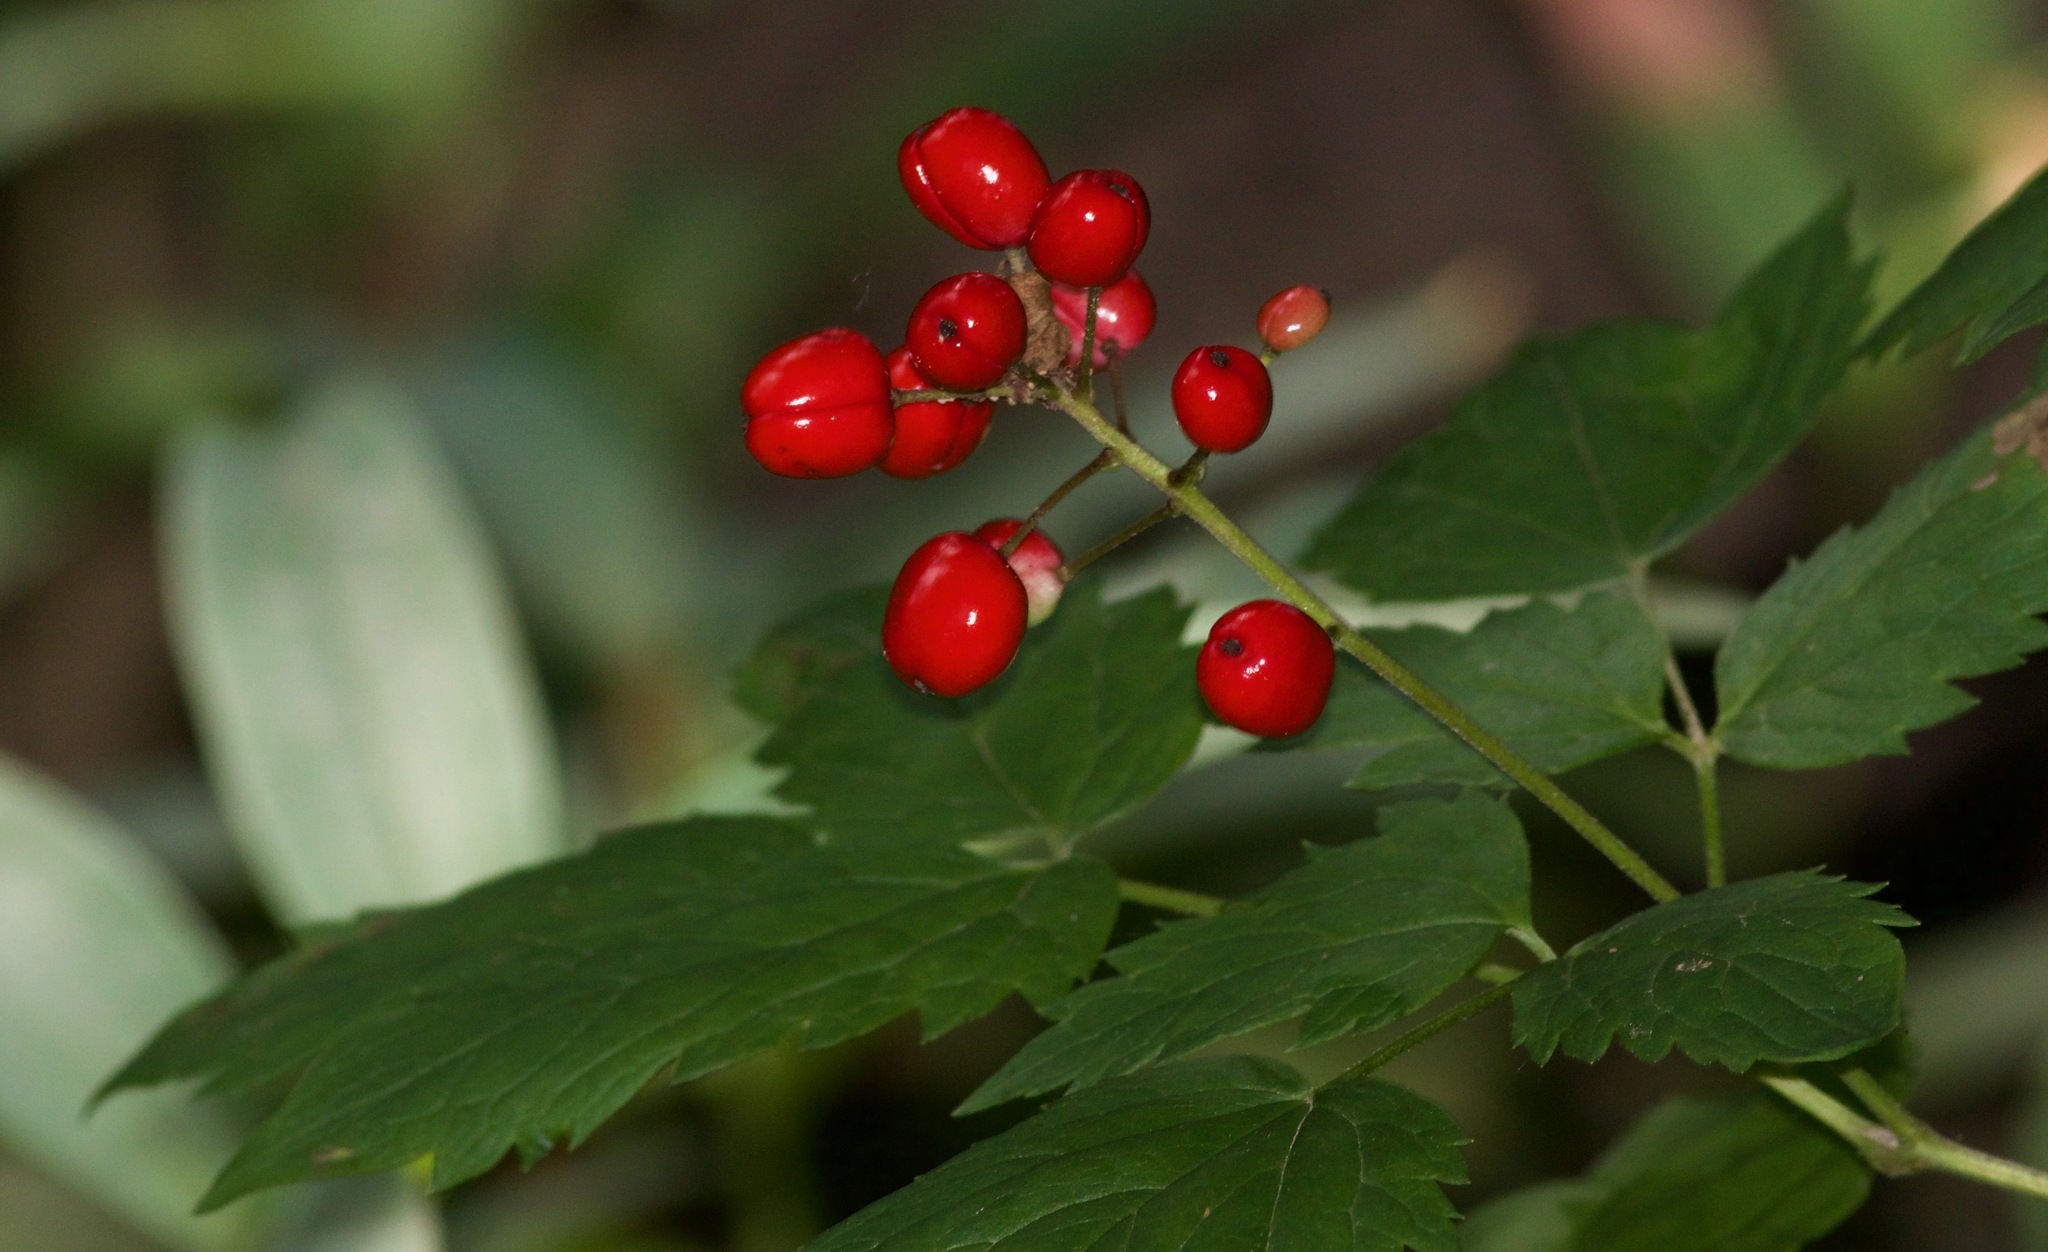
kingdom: Plantae
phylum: Tracheophyta
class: Magnoliopsida
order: Ranunculales
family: Ranunculaceae
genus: Actaea
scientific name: Actaea rubra
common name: Red baneberry
